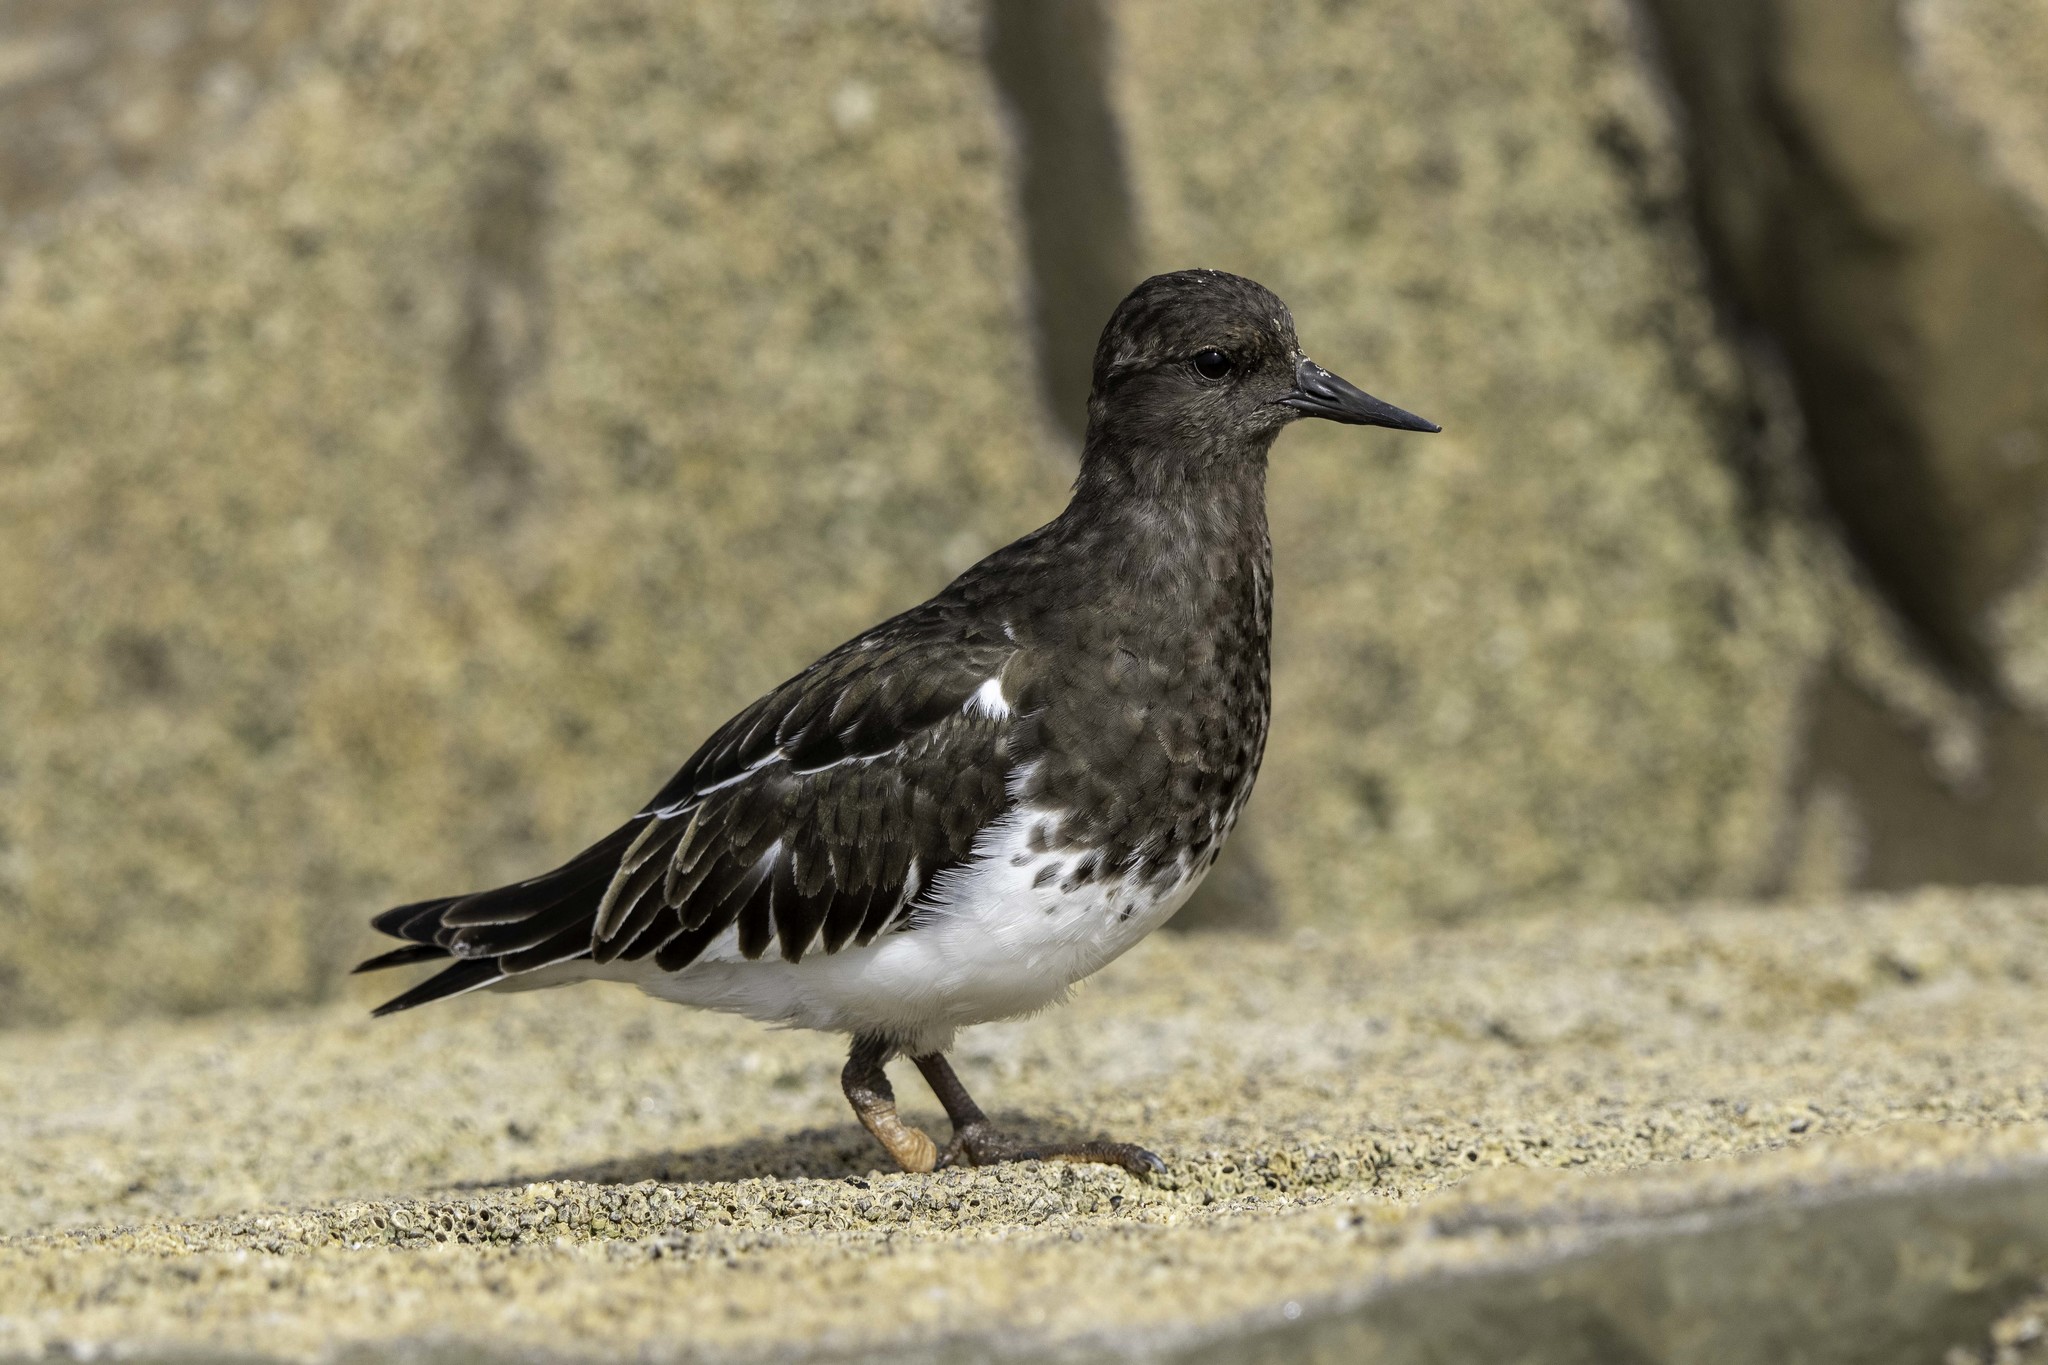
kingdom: Animalia
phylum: Chordata
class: Aves
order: Charadriiformes
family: Scolopacidae
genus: Arenaria
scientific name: Arenaria melanocephala
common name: Black turnstone
